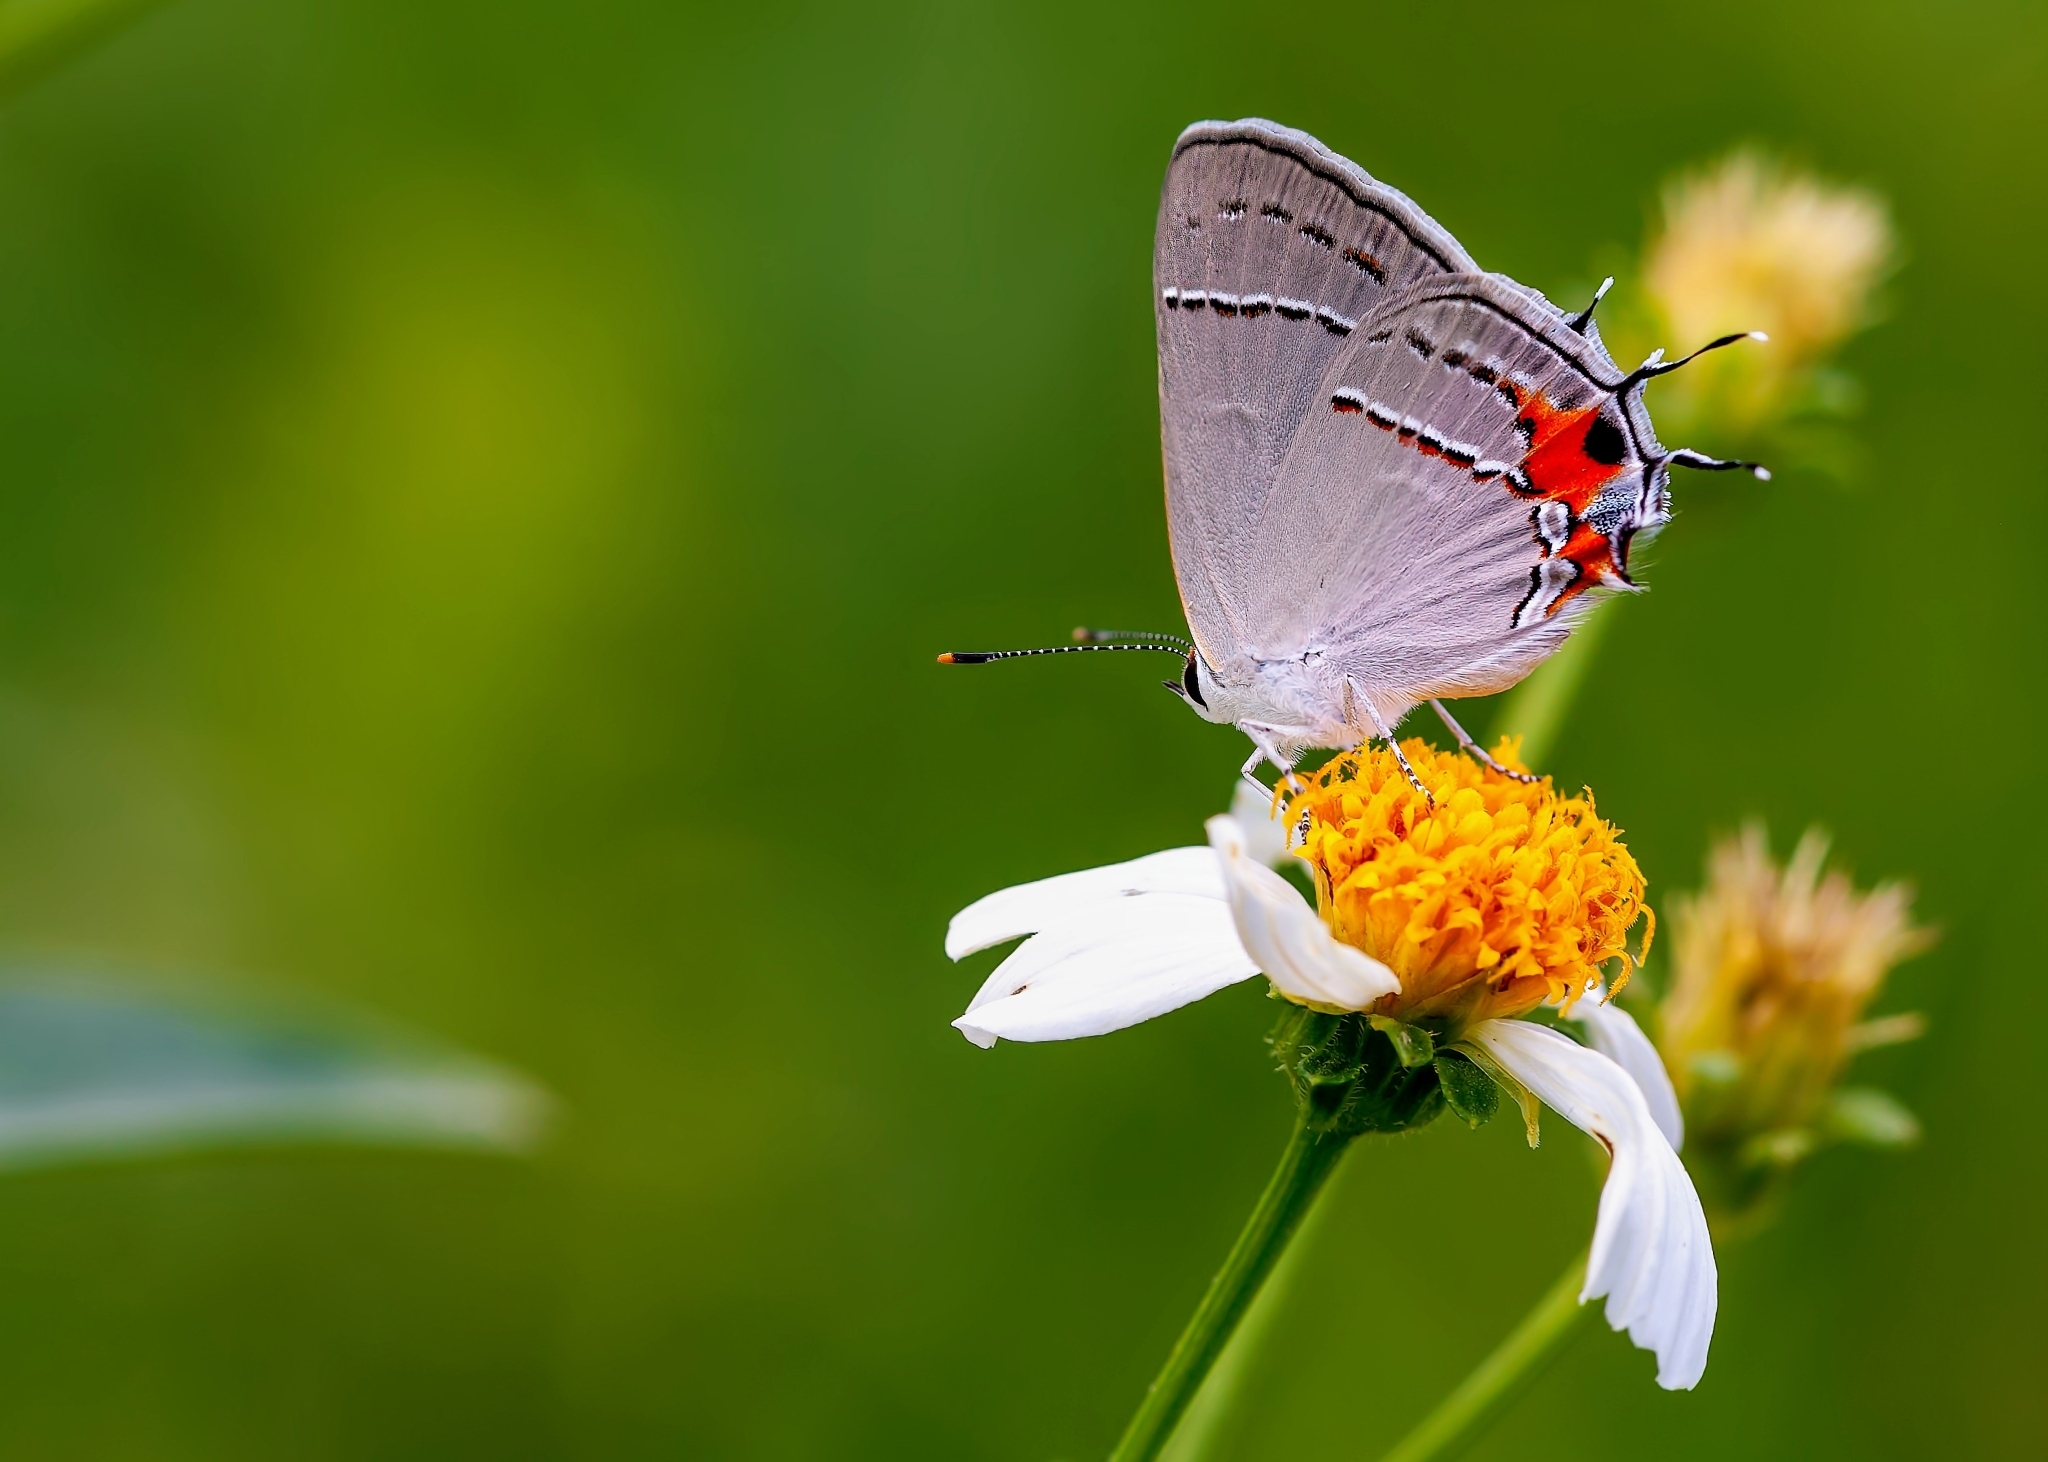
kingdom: Animalia
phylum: Arthropoda
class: Insecta
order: Lepidoptera
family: Lycaenidae
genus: Strymon
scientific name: Strymon melinus
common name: Gray hairstreak
